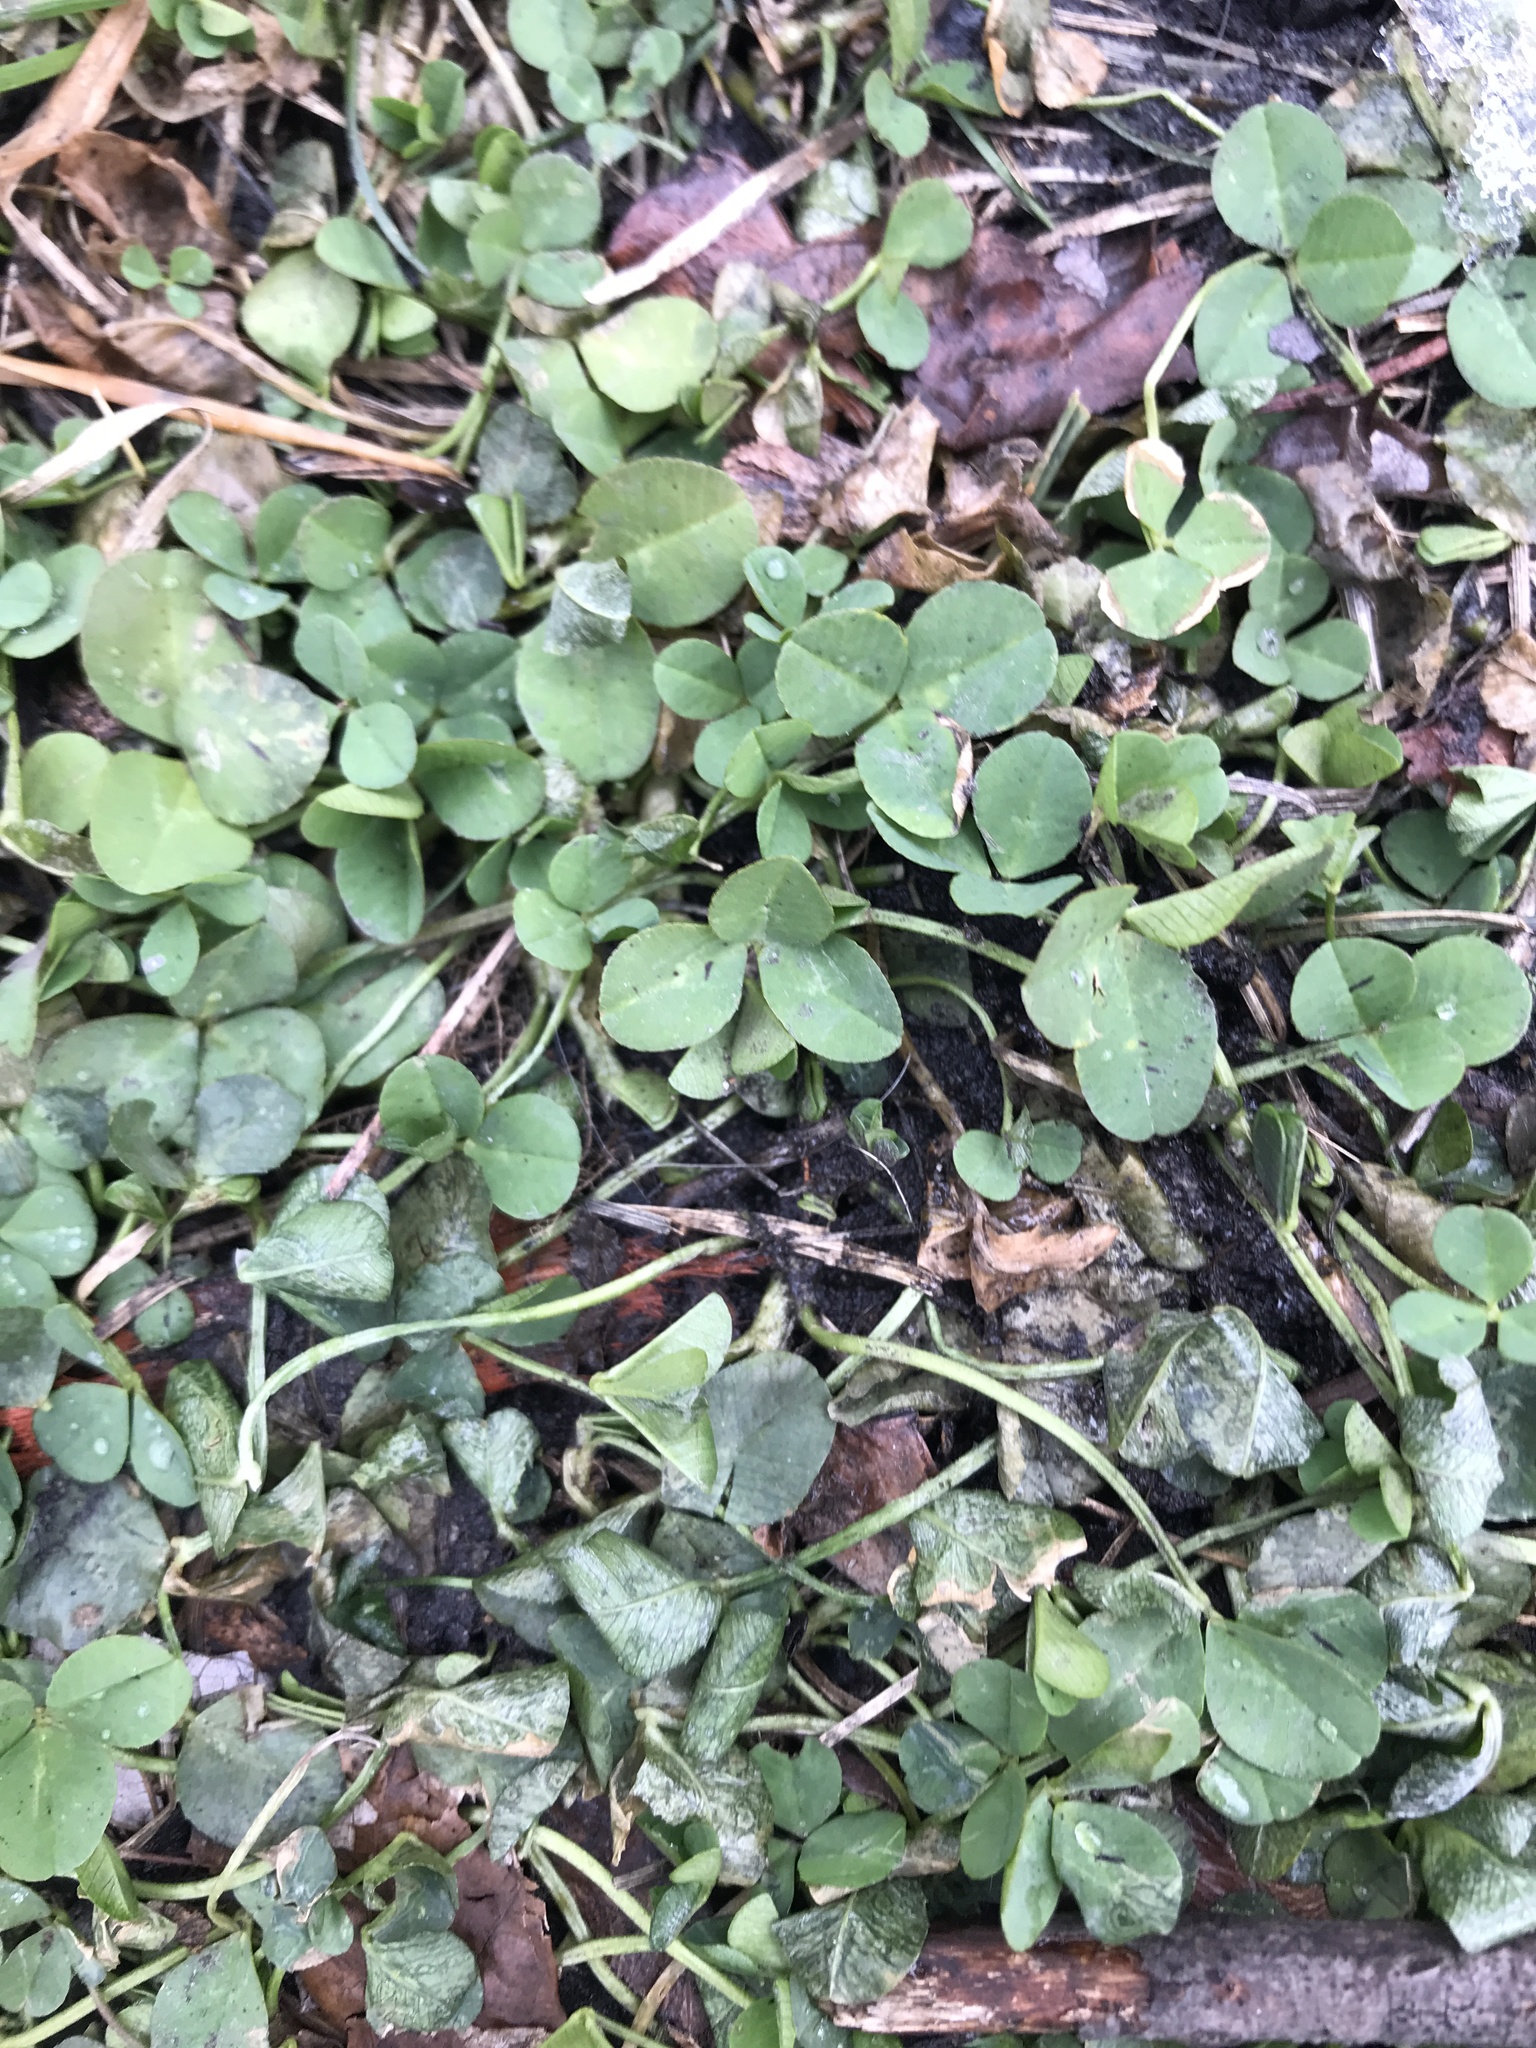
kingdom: Plantae
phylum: Tracheophyta
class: Magnoliopsida
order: Fabales
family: Fabaceae
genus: Trifolium
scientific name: Trifolium repens
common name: White clover
